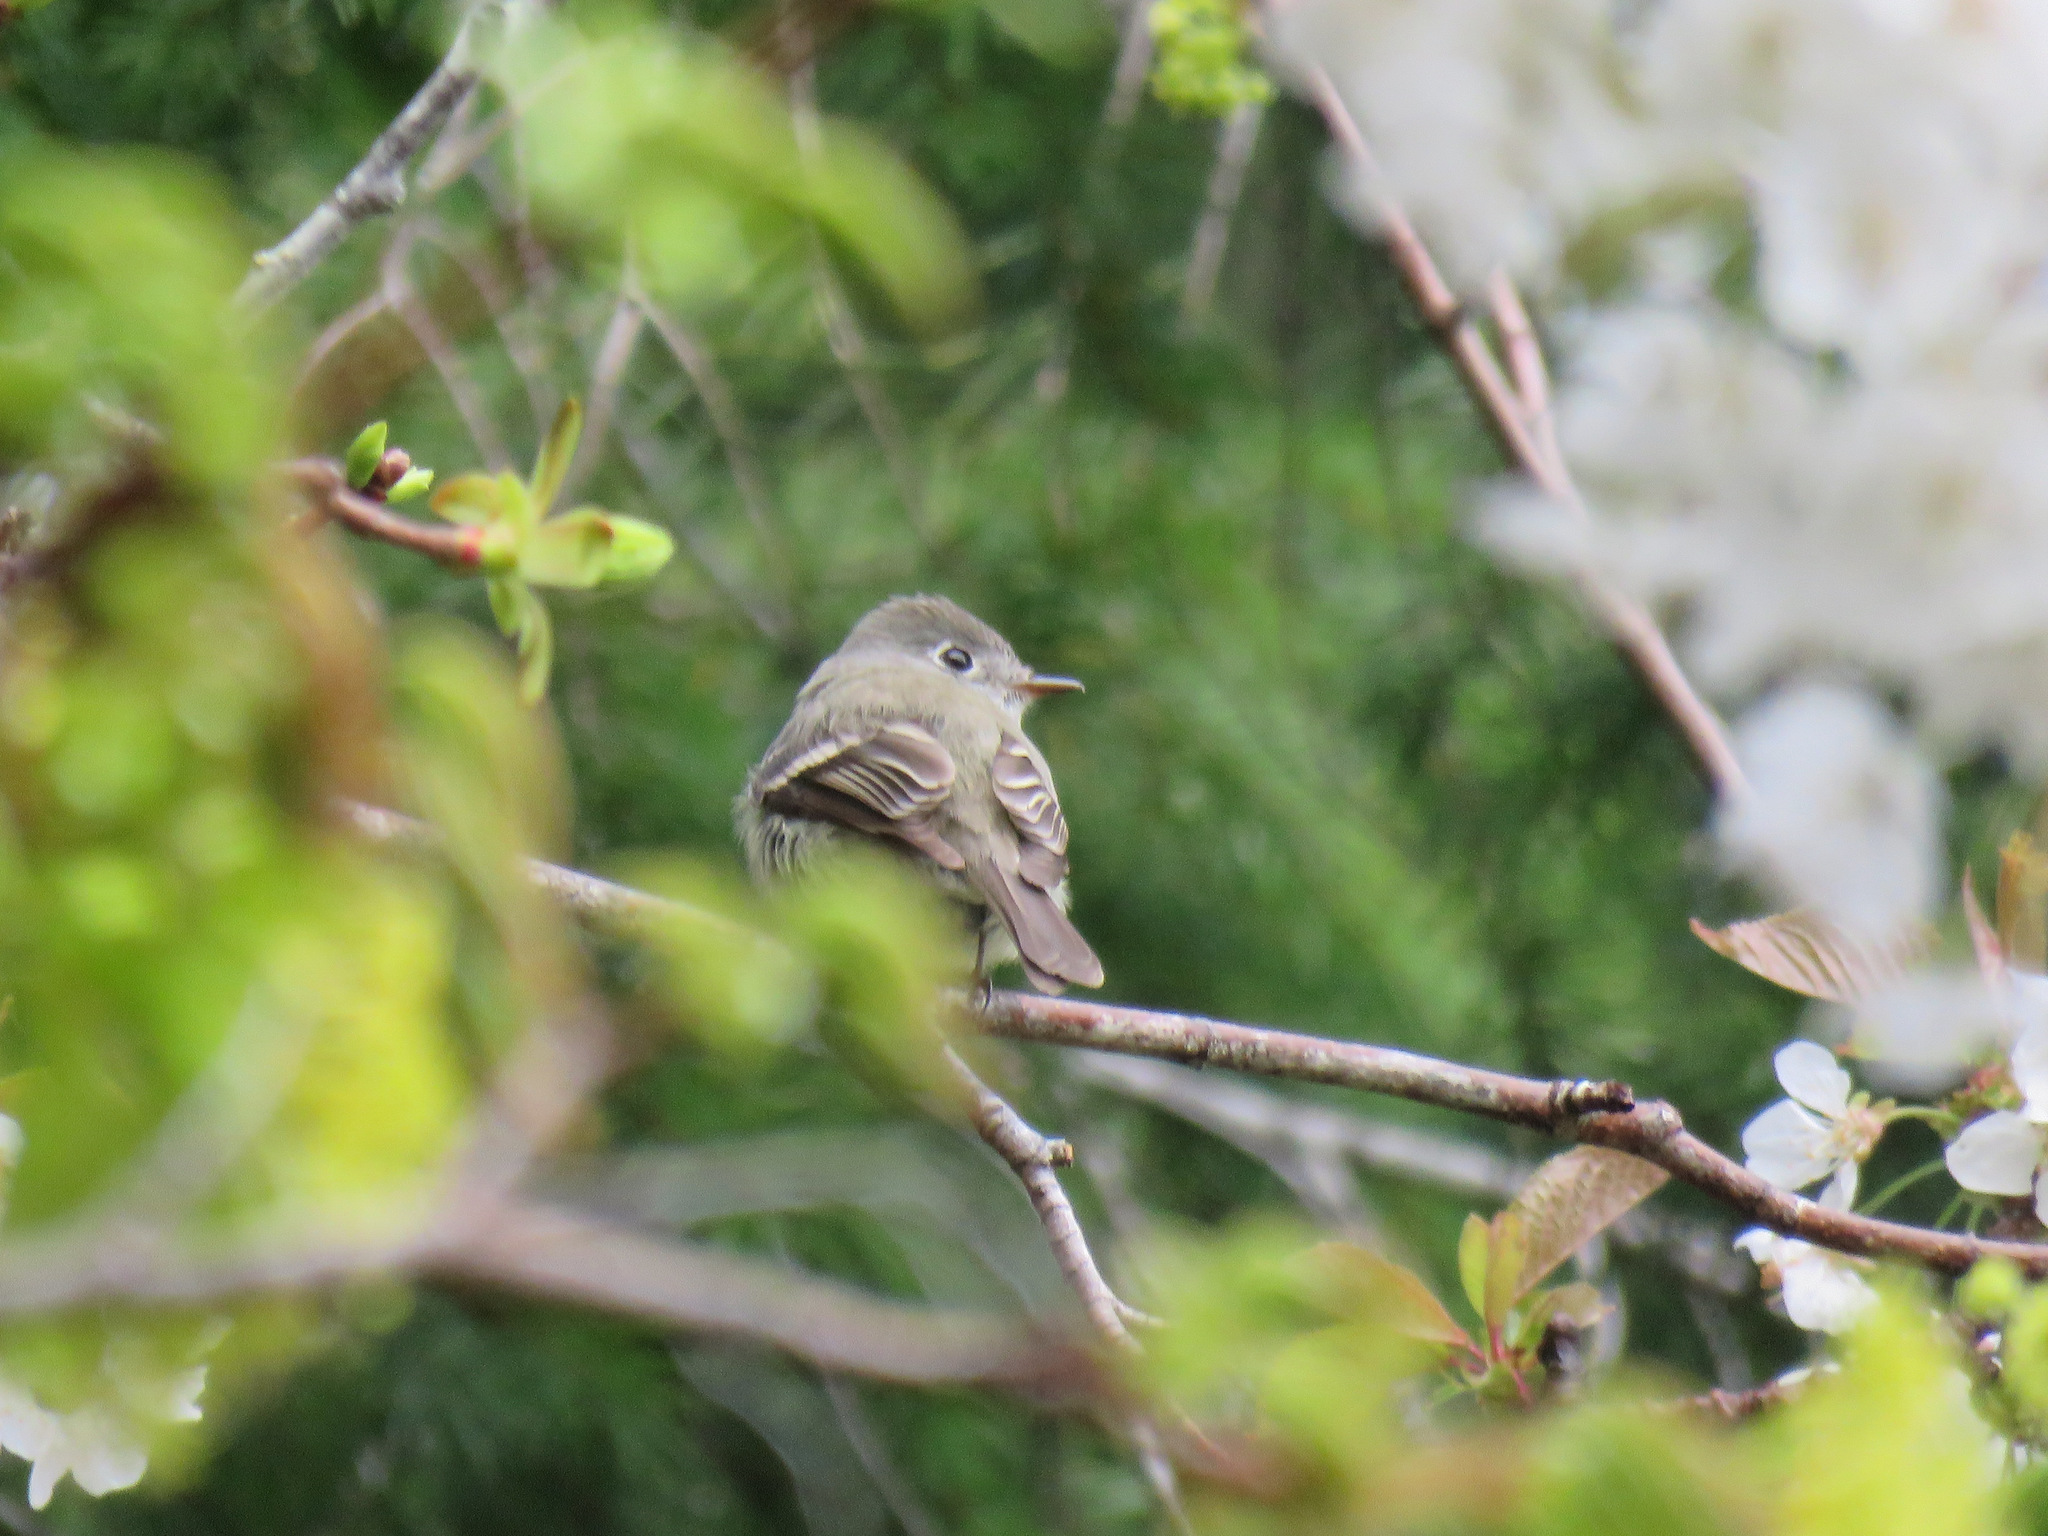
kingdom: Animalia
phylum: Chordata
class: Aves
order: Passeriformes
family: Tyrannidae
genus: Empidonax
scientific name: Empidonax hammondii
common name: Hammond's flycatcher
